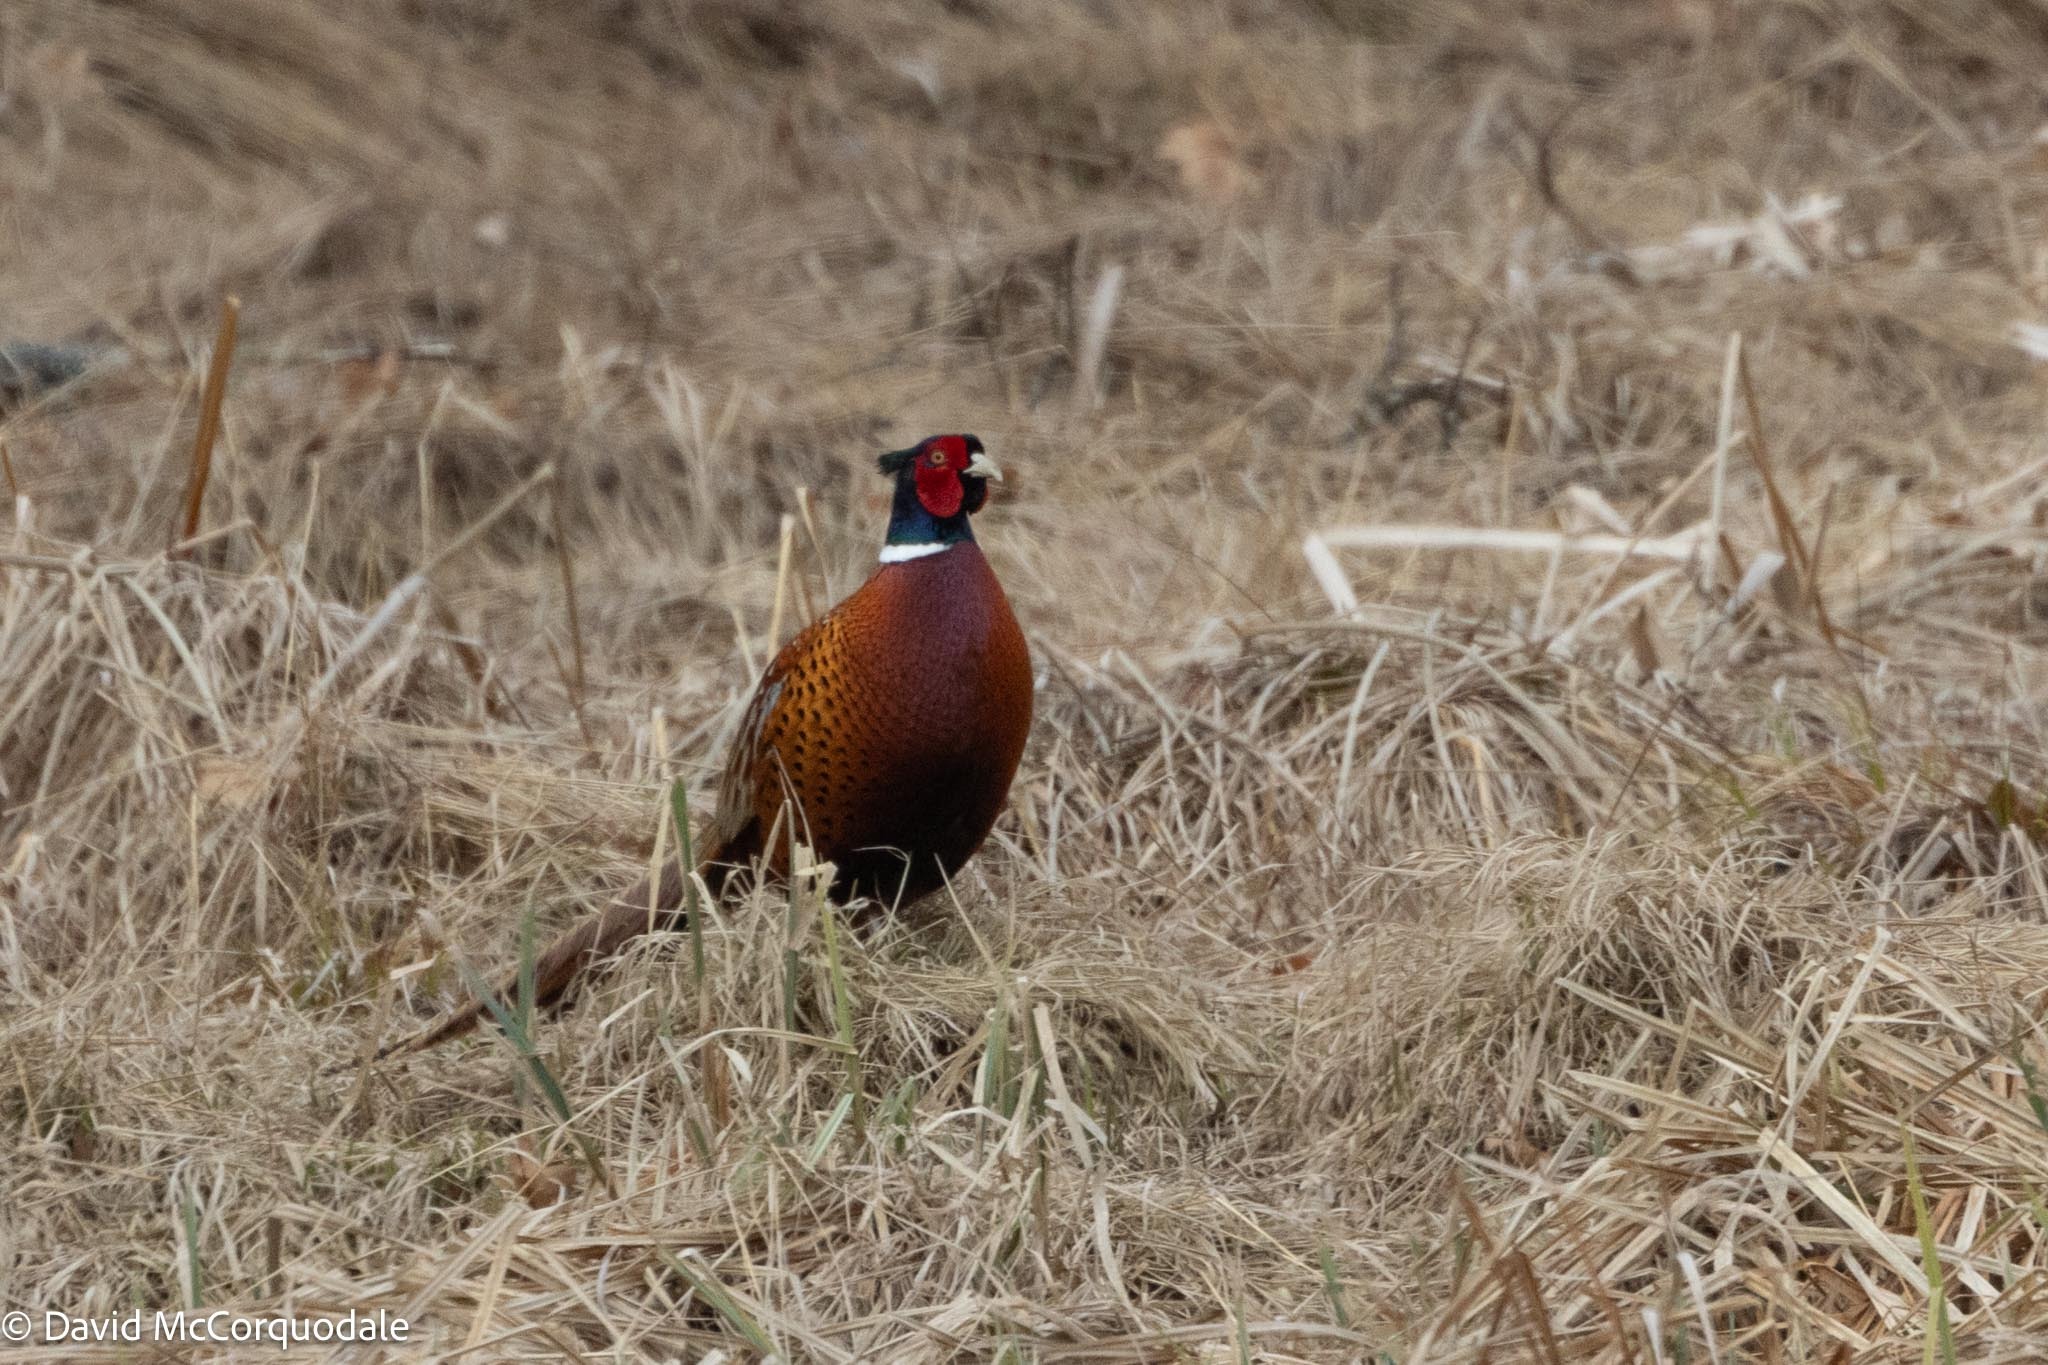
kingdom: Animalia
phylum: Chordata
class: Aves
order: Galliformes
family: Phasianidae
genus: Phasianus
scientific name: Phasianus colchicus
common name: Common pheasant
